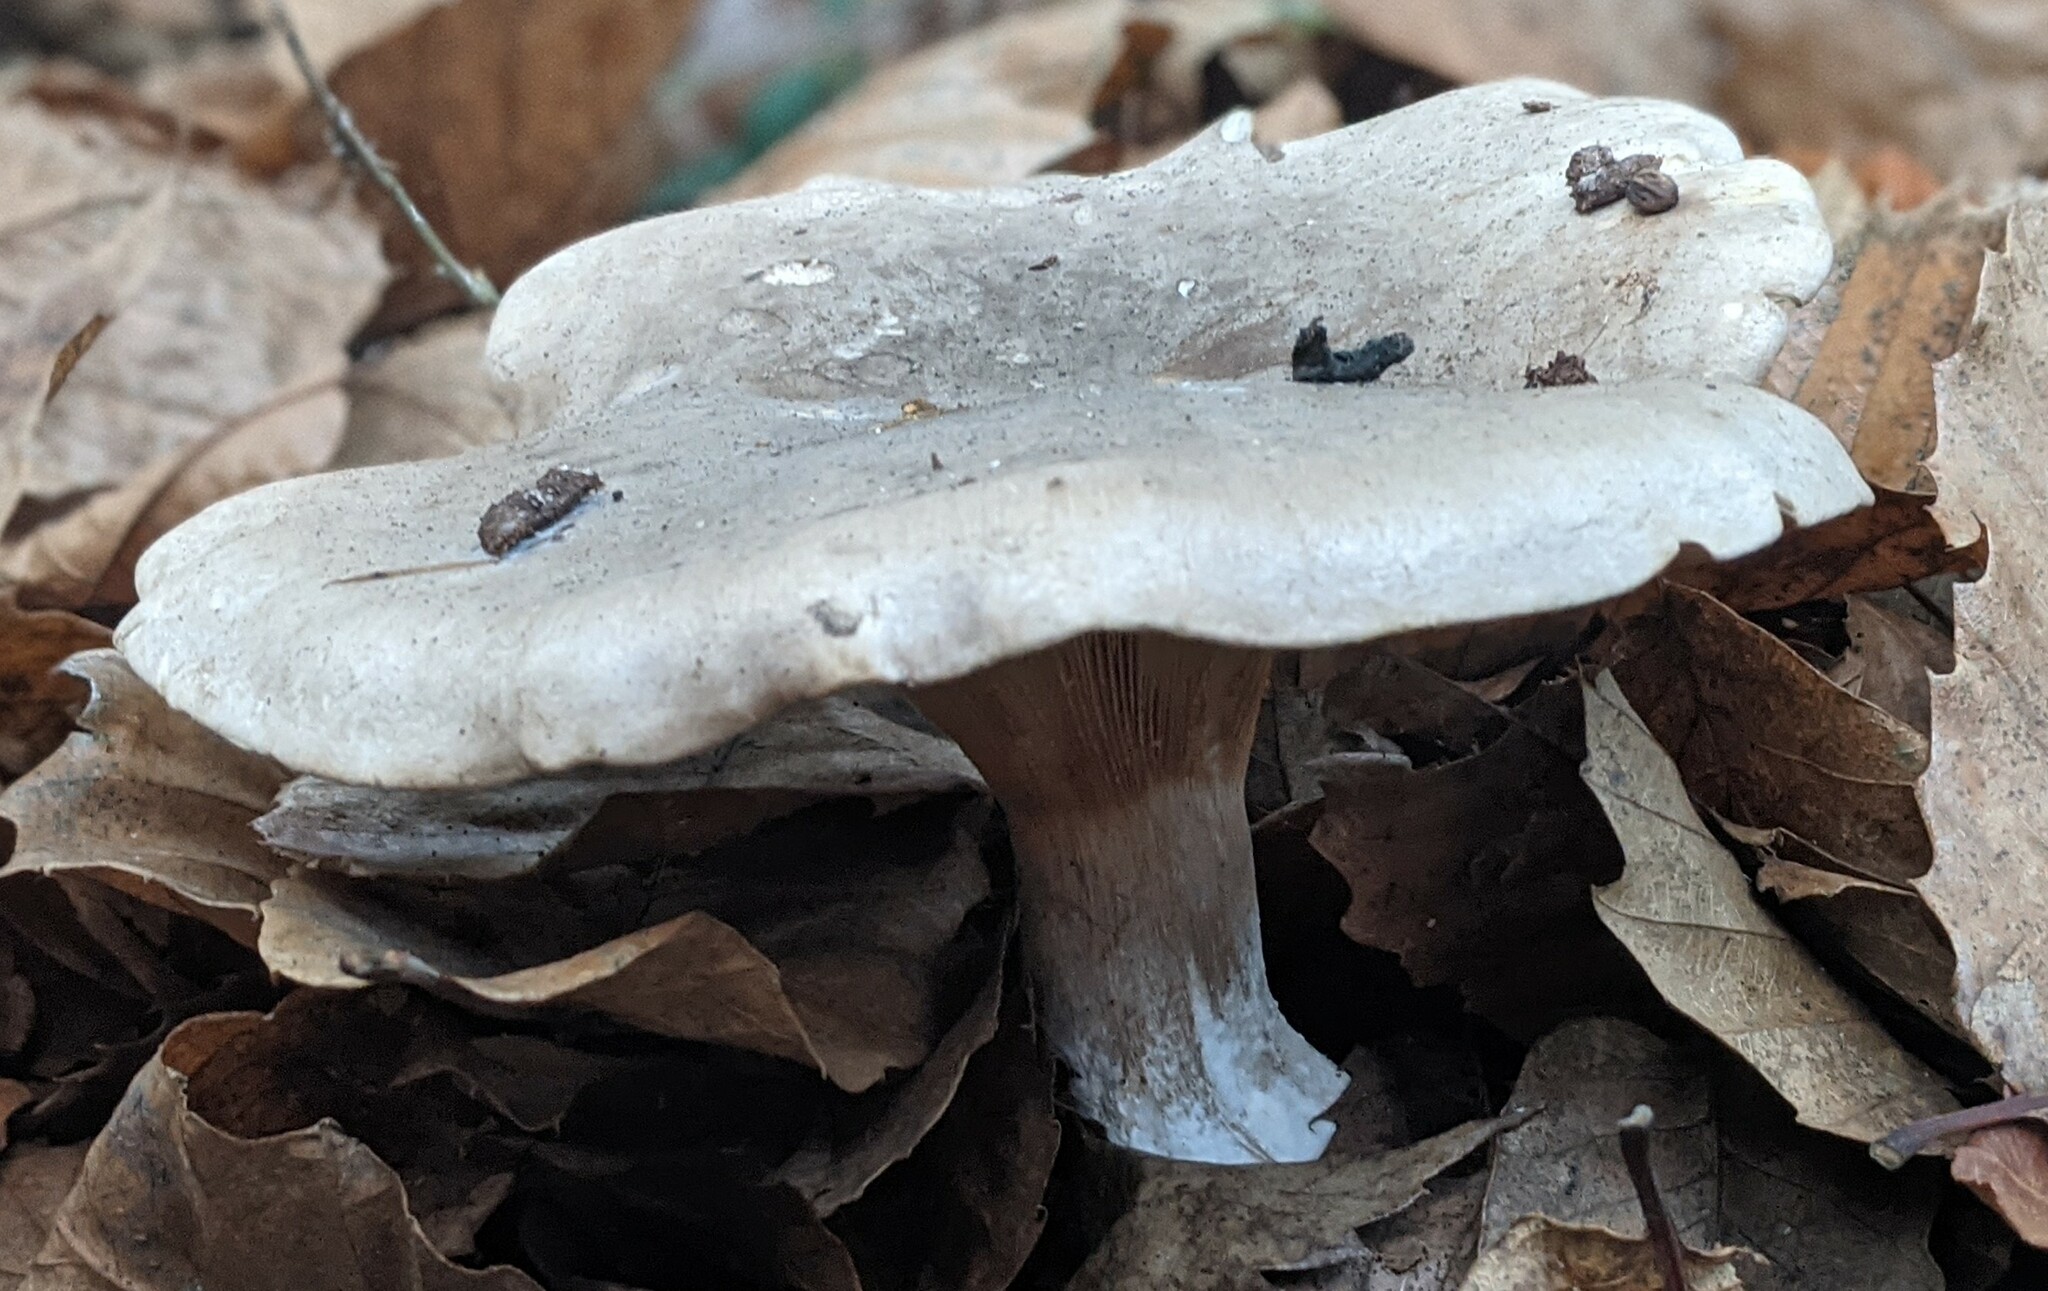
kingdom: Fungi
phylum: Basidiomycota
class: Agaricomycetes
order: Agaricales
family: Tricholomataceae
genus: Clitocybe
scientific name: Clitocybe nebularis
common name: Clouded agaric
